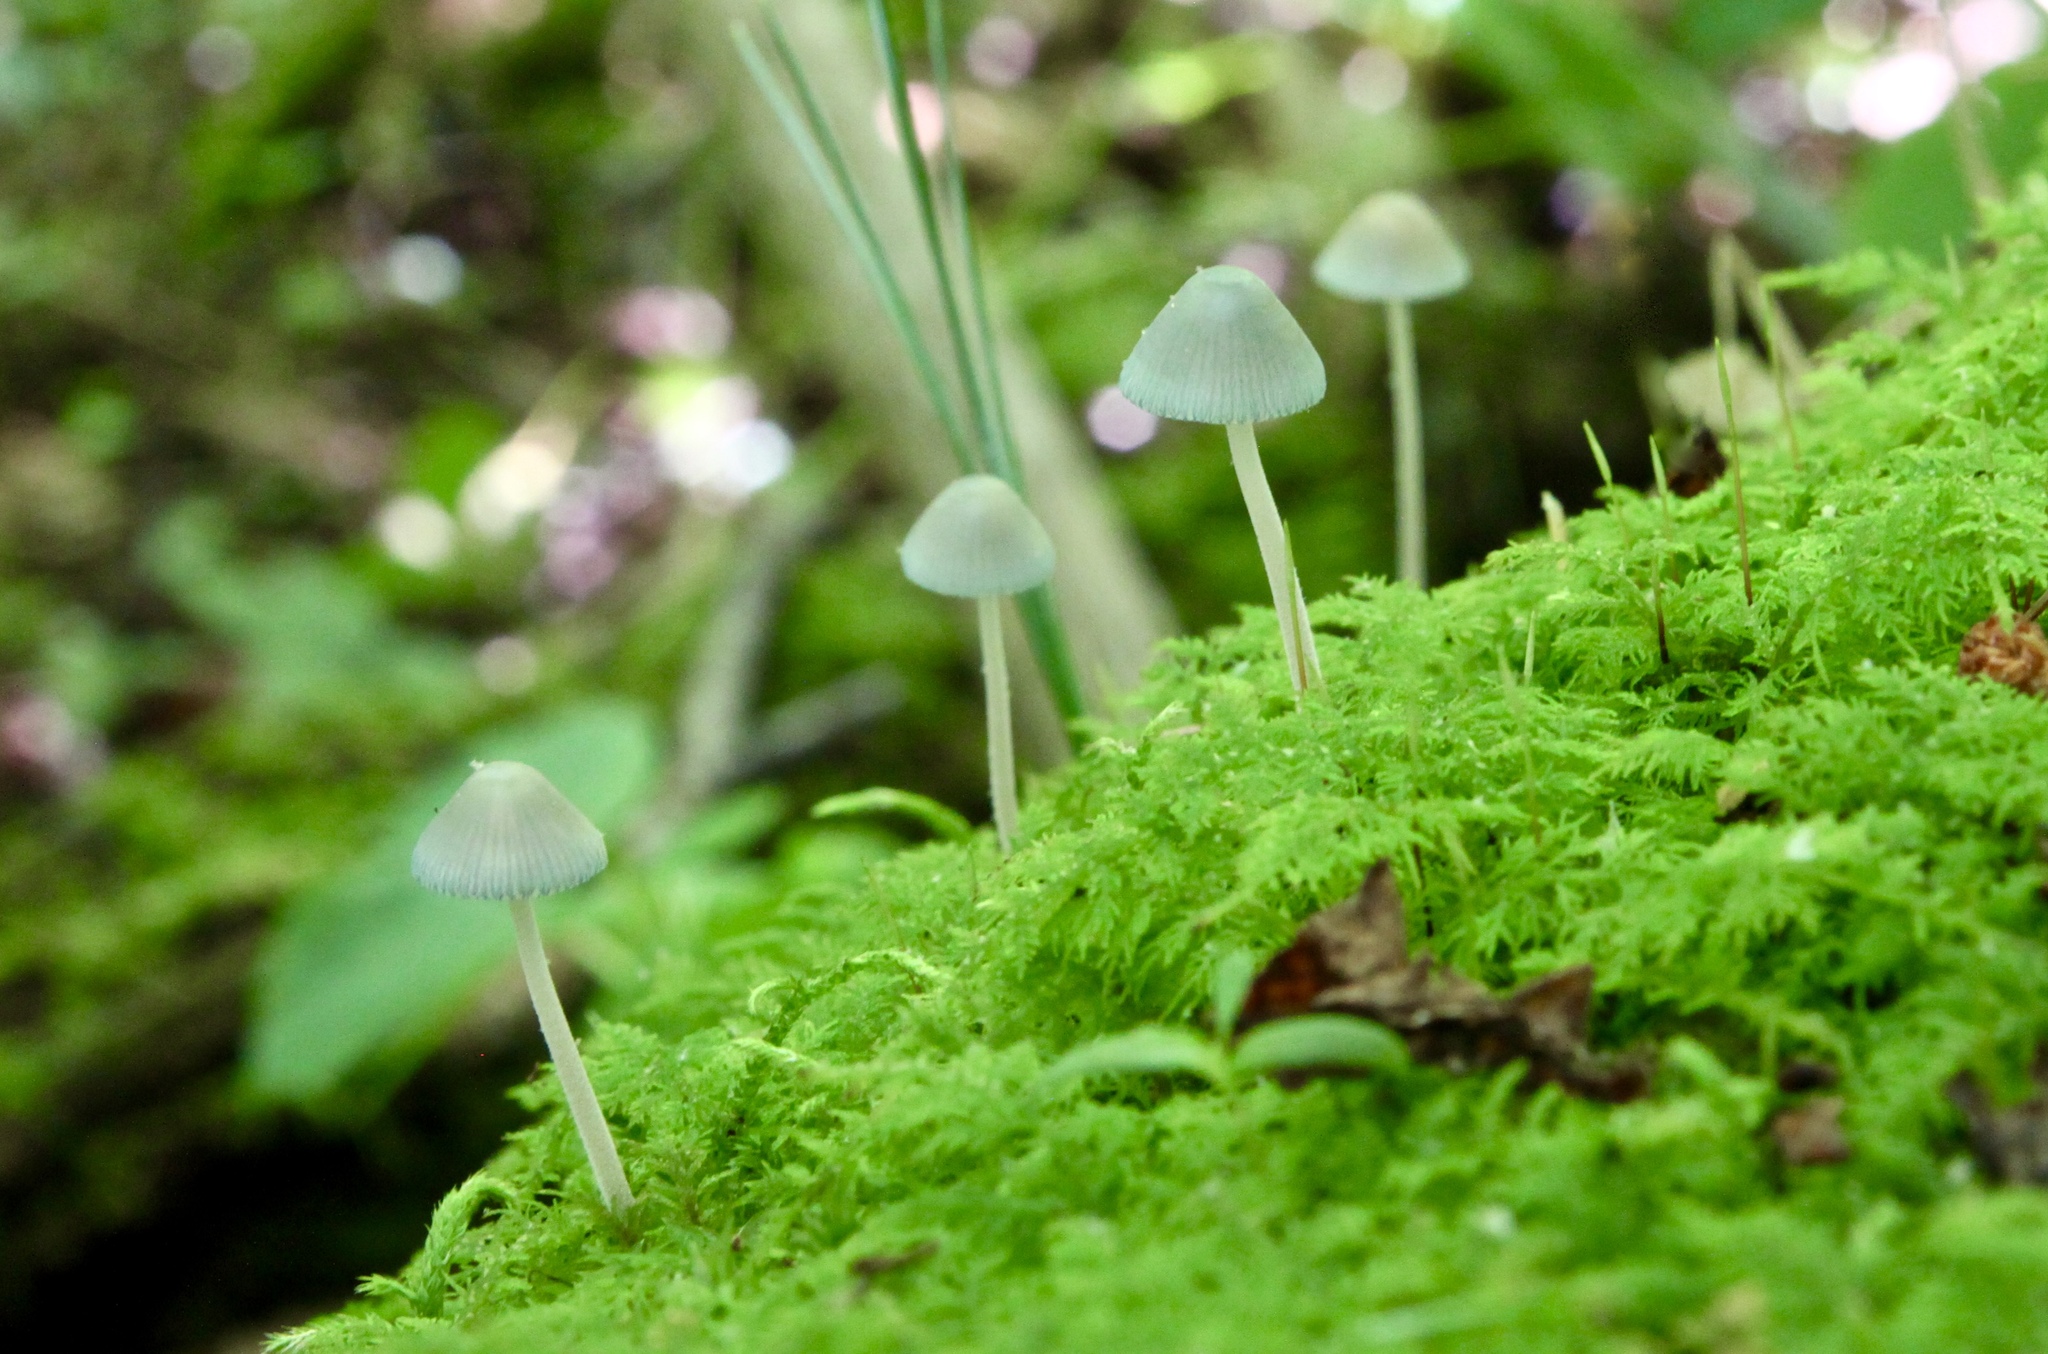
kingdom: Fungi
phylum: Basidiomycota
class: Agaricomycetes
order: Agaricales
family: Mycenaceae
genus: Mycena
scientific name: Mycena subcaerulea
